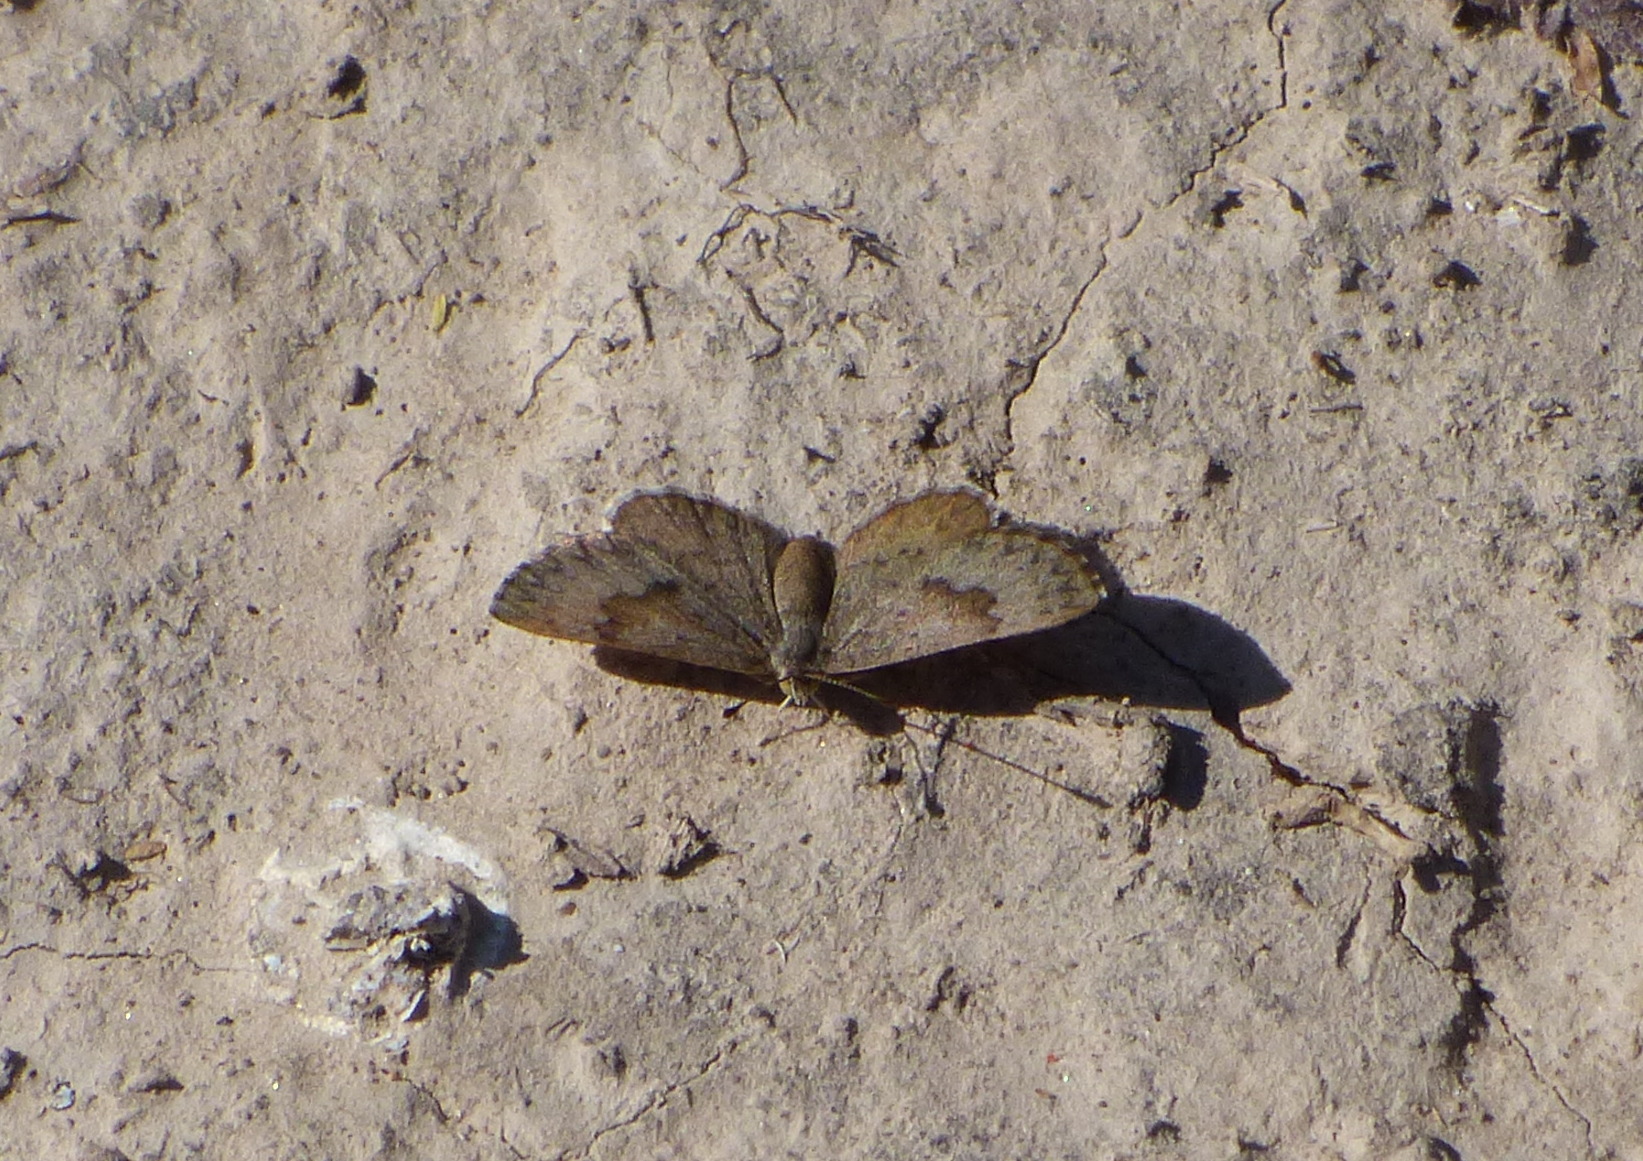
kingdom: Animalia
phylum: Arthropoda
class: Insecta
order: Lepidoptera
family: Riodinidae
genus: Zabuella
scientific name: Zabuella tenellus
